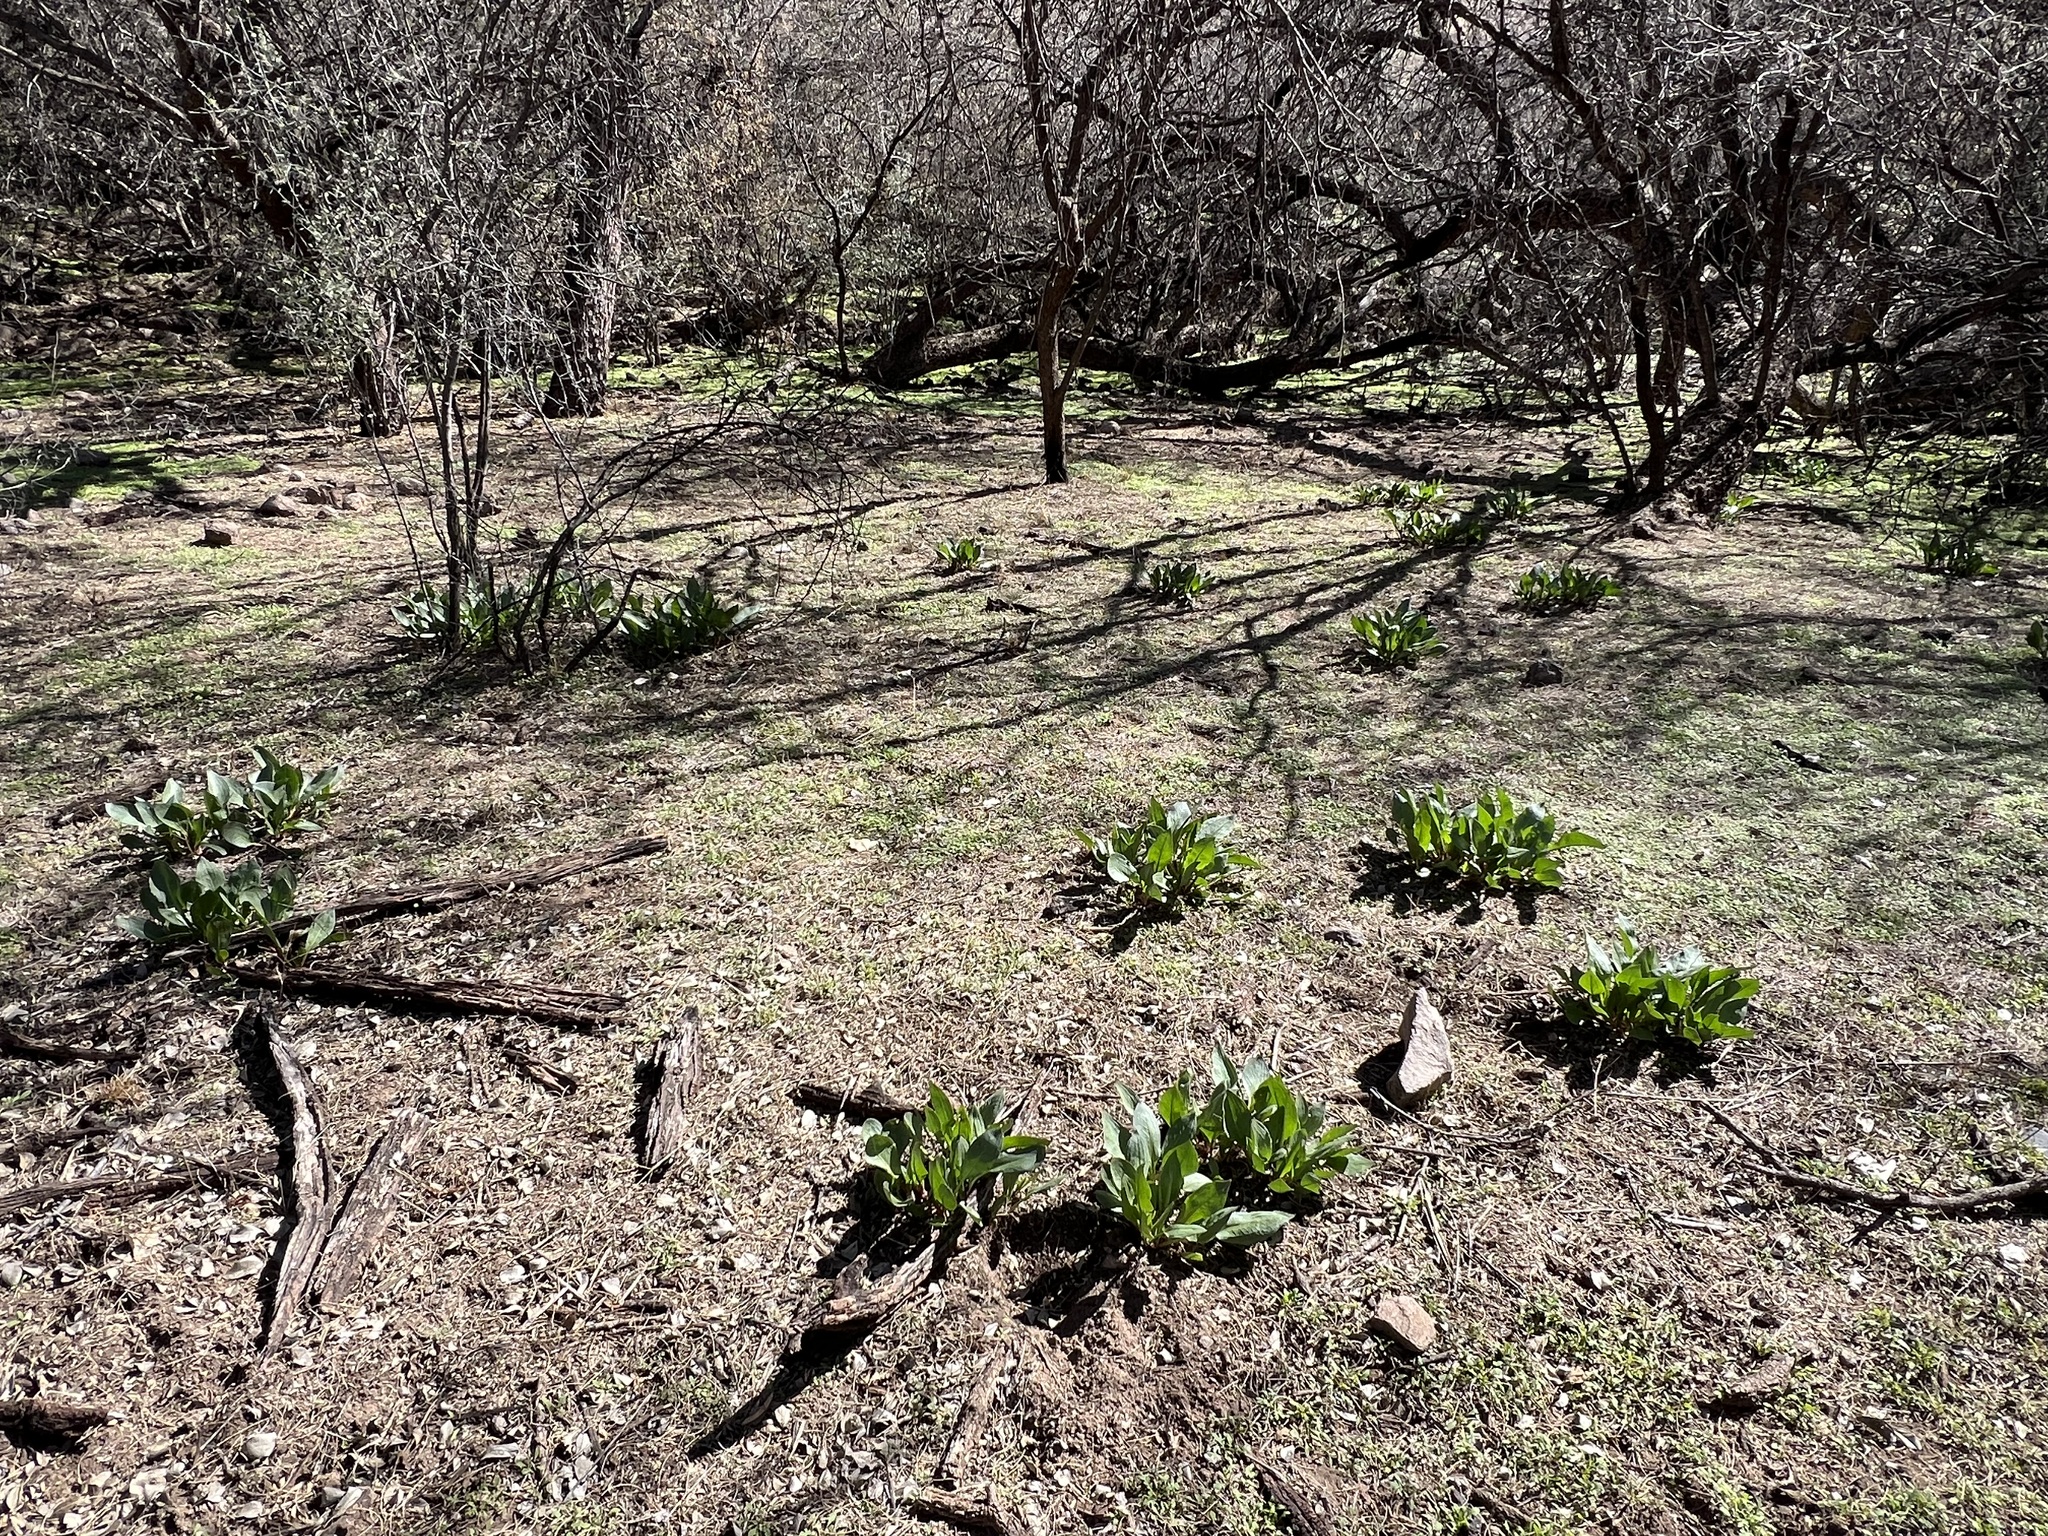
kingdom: Plantae
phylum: Tracheophyta
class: Magnoliopsida
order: Caryophyllales
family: Polygonaceae
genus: Rumex
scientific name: Rumex hymenosepalus
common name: Ganagra
